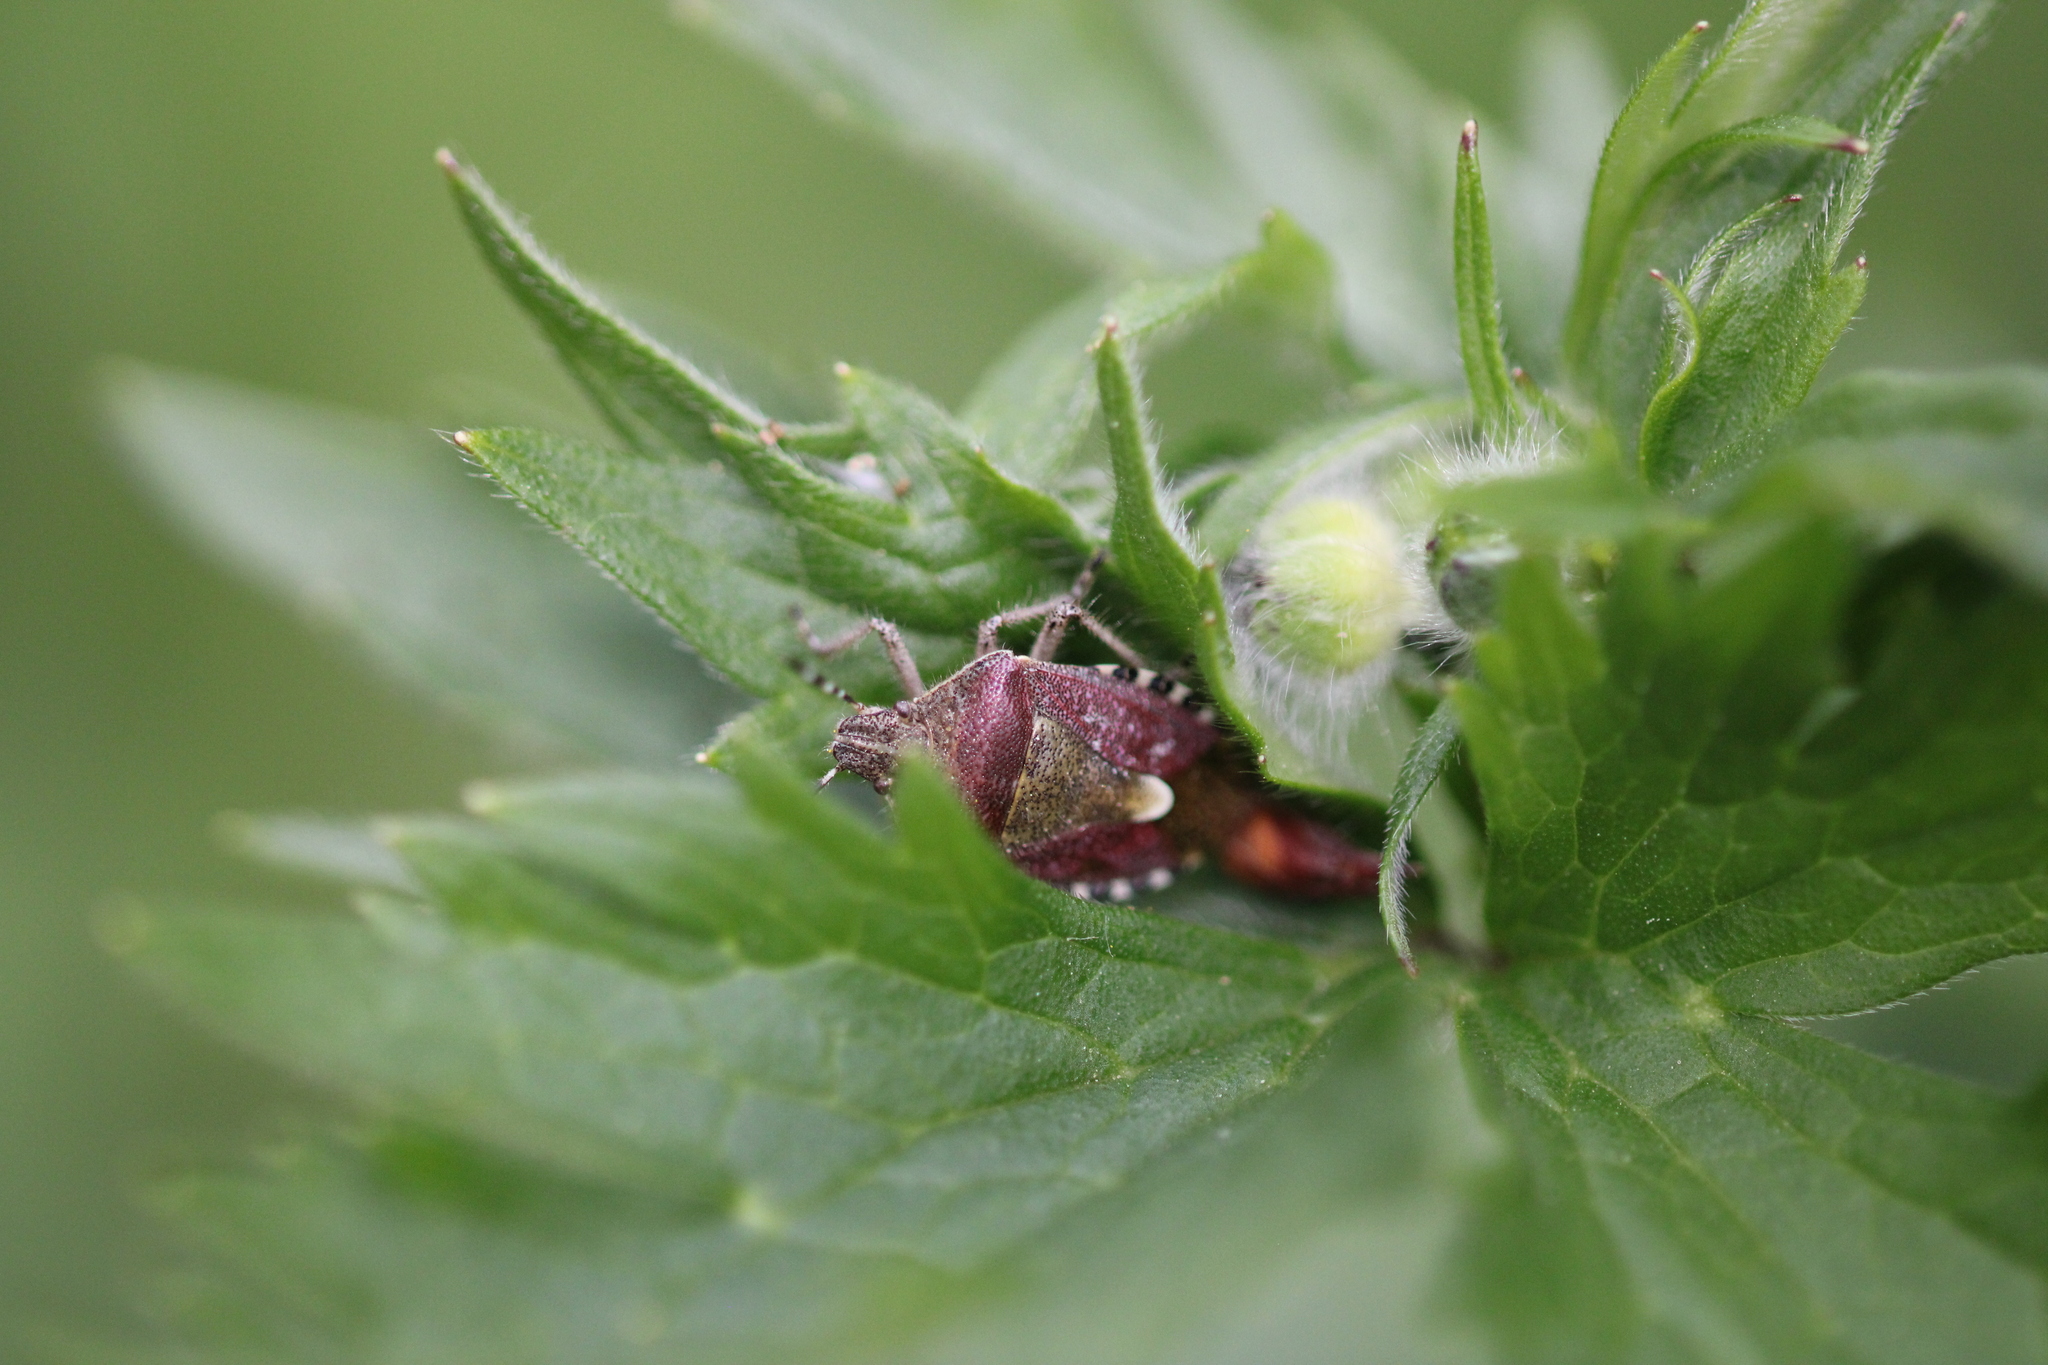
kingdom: Animalia
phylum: Arthropoda
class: Insecta
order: Hemiptera
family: Pentatomidae
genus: Dolycoris
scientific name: Dolycoris baccarum
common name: Sloe bug
